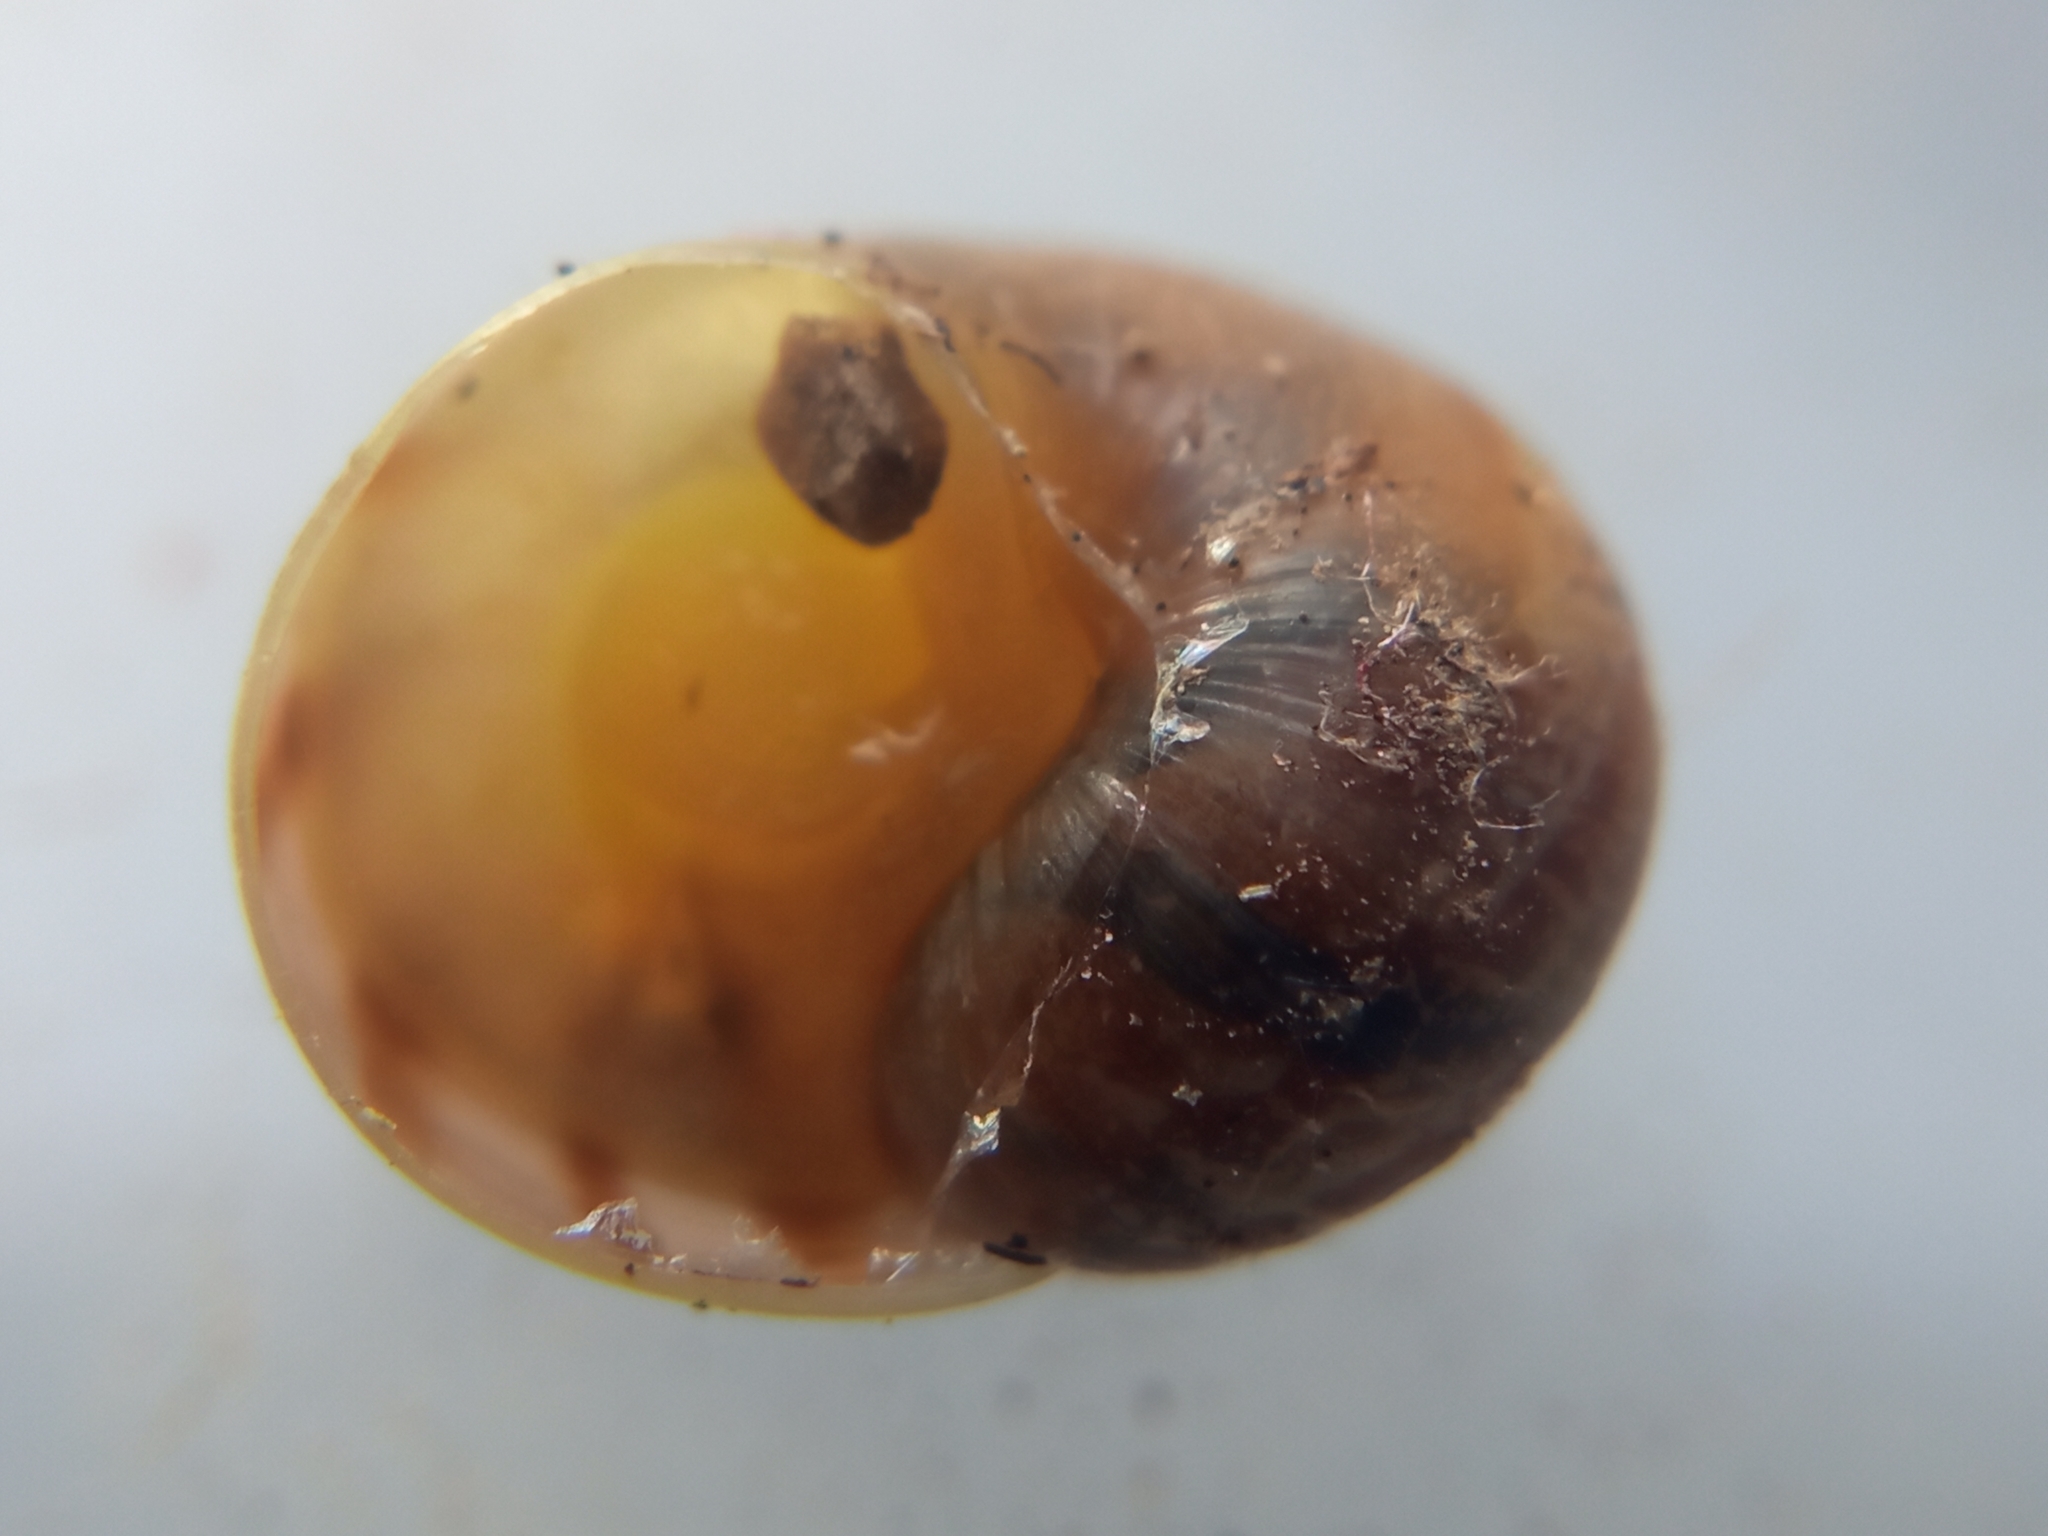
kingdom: Animalia
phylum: Mollusca
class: Gastropoda
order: Stylommatophora
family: Helicidae
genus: Cornu
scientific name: Cornu aspersum
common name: Brown garden snail
